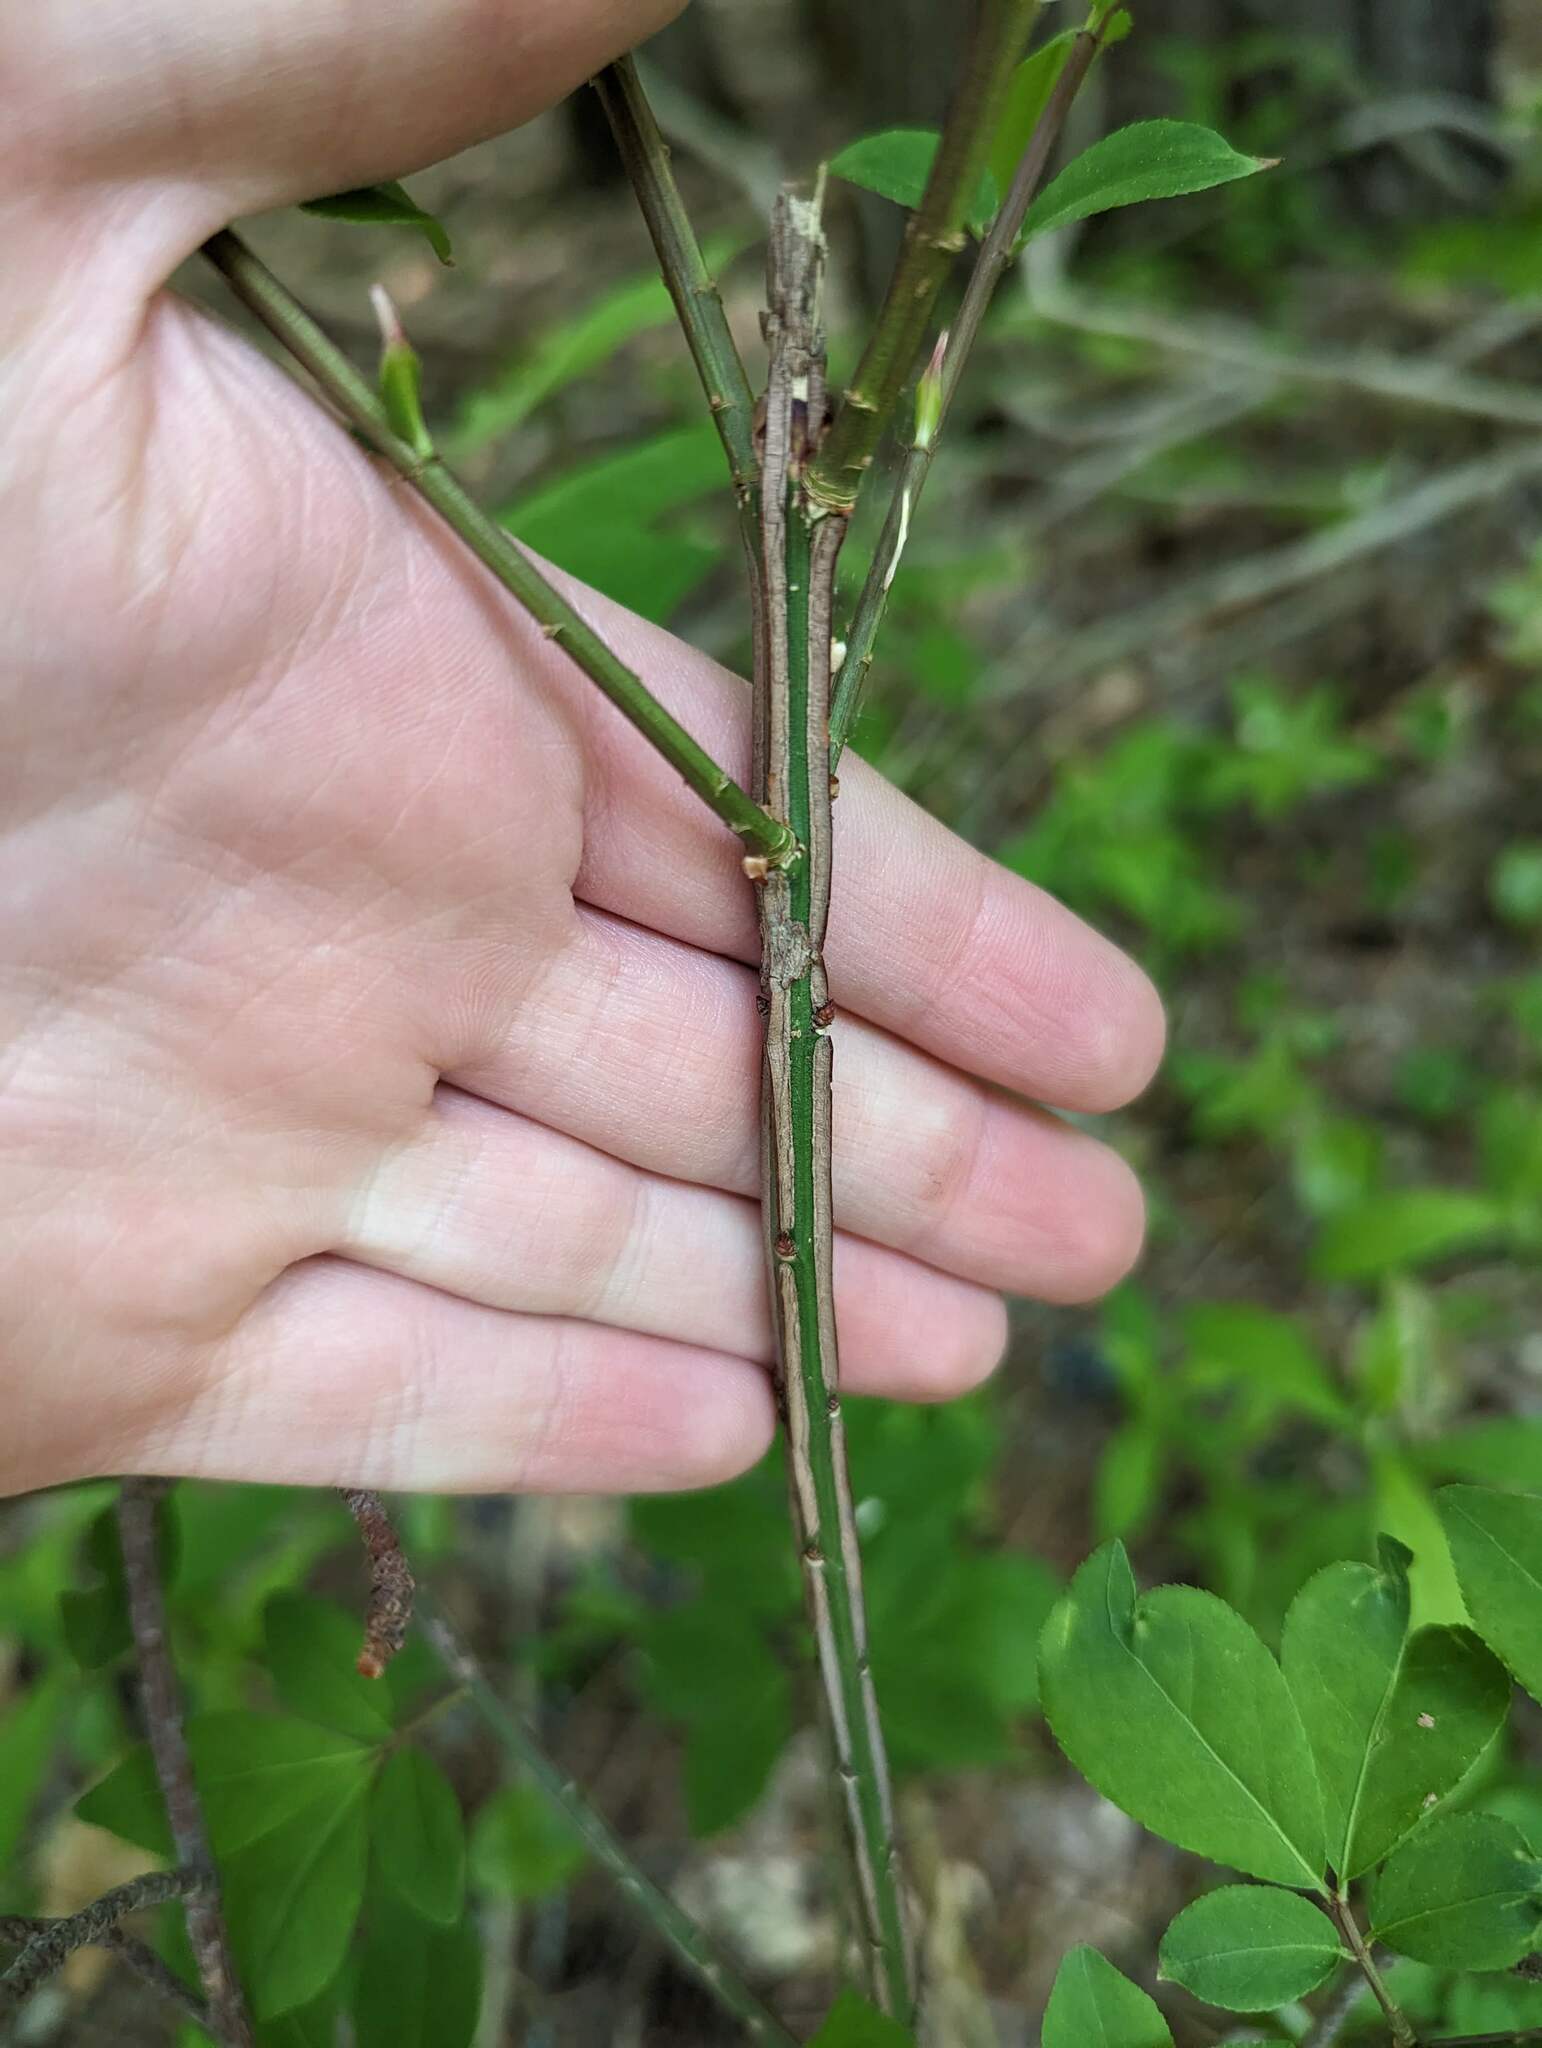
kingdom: Plantae
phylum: Tracheophyta
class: Magnoliopsida
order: Celastrales
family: Celastraceae
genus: Euonymus
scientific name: Euonymus alatus
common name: Winged euonymus
